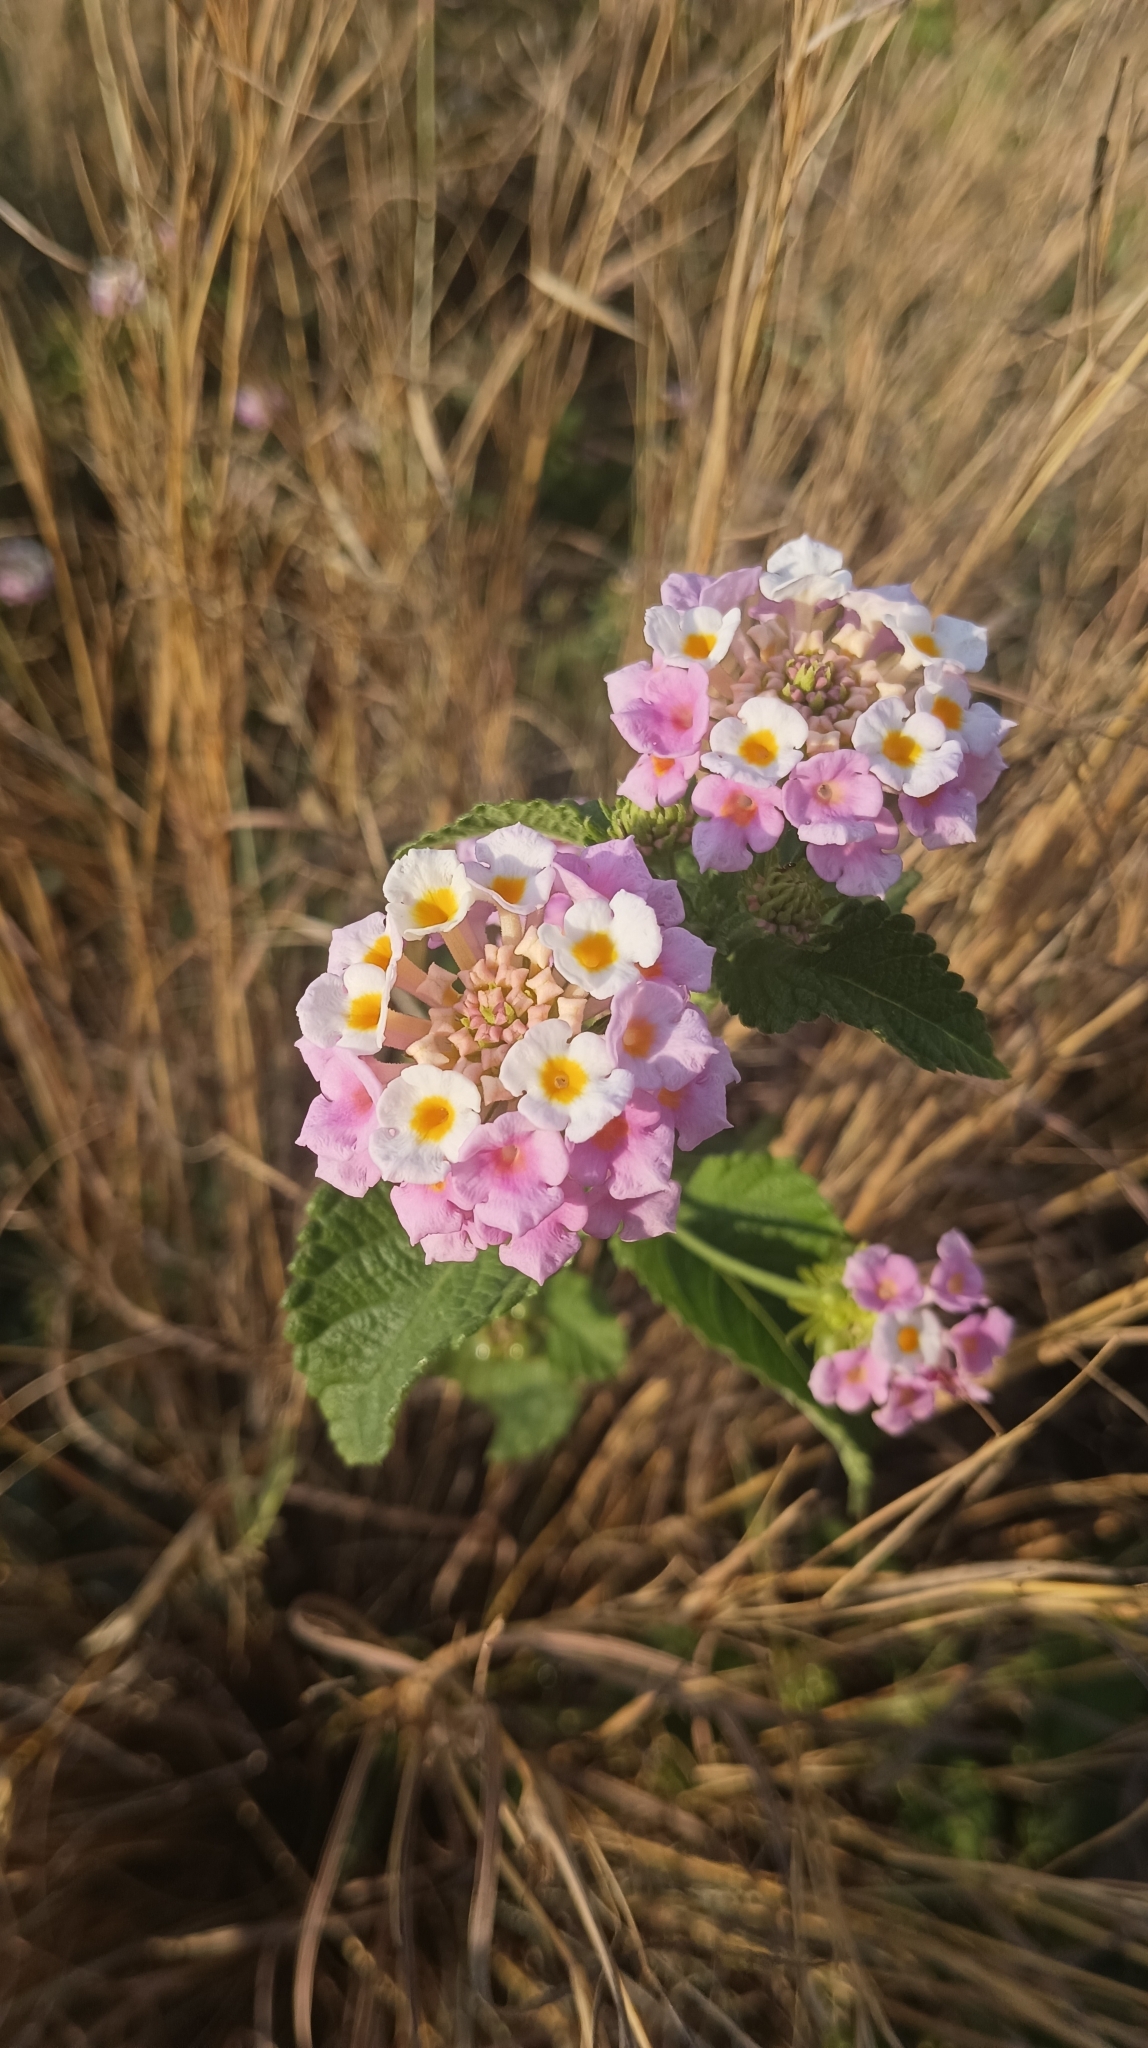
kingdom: Plantae
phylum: Tracheophyta
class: Magnoliopsida
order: Lamiales
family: Verbenaceae
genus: Lantana
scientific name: Lantana camara
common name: Lantana
